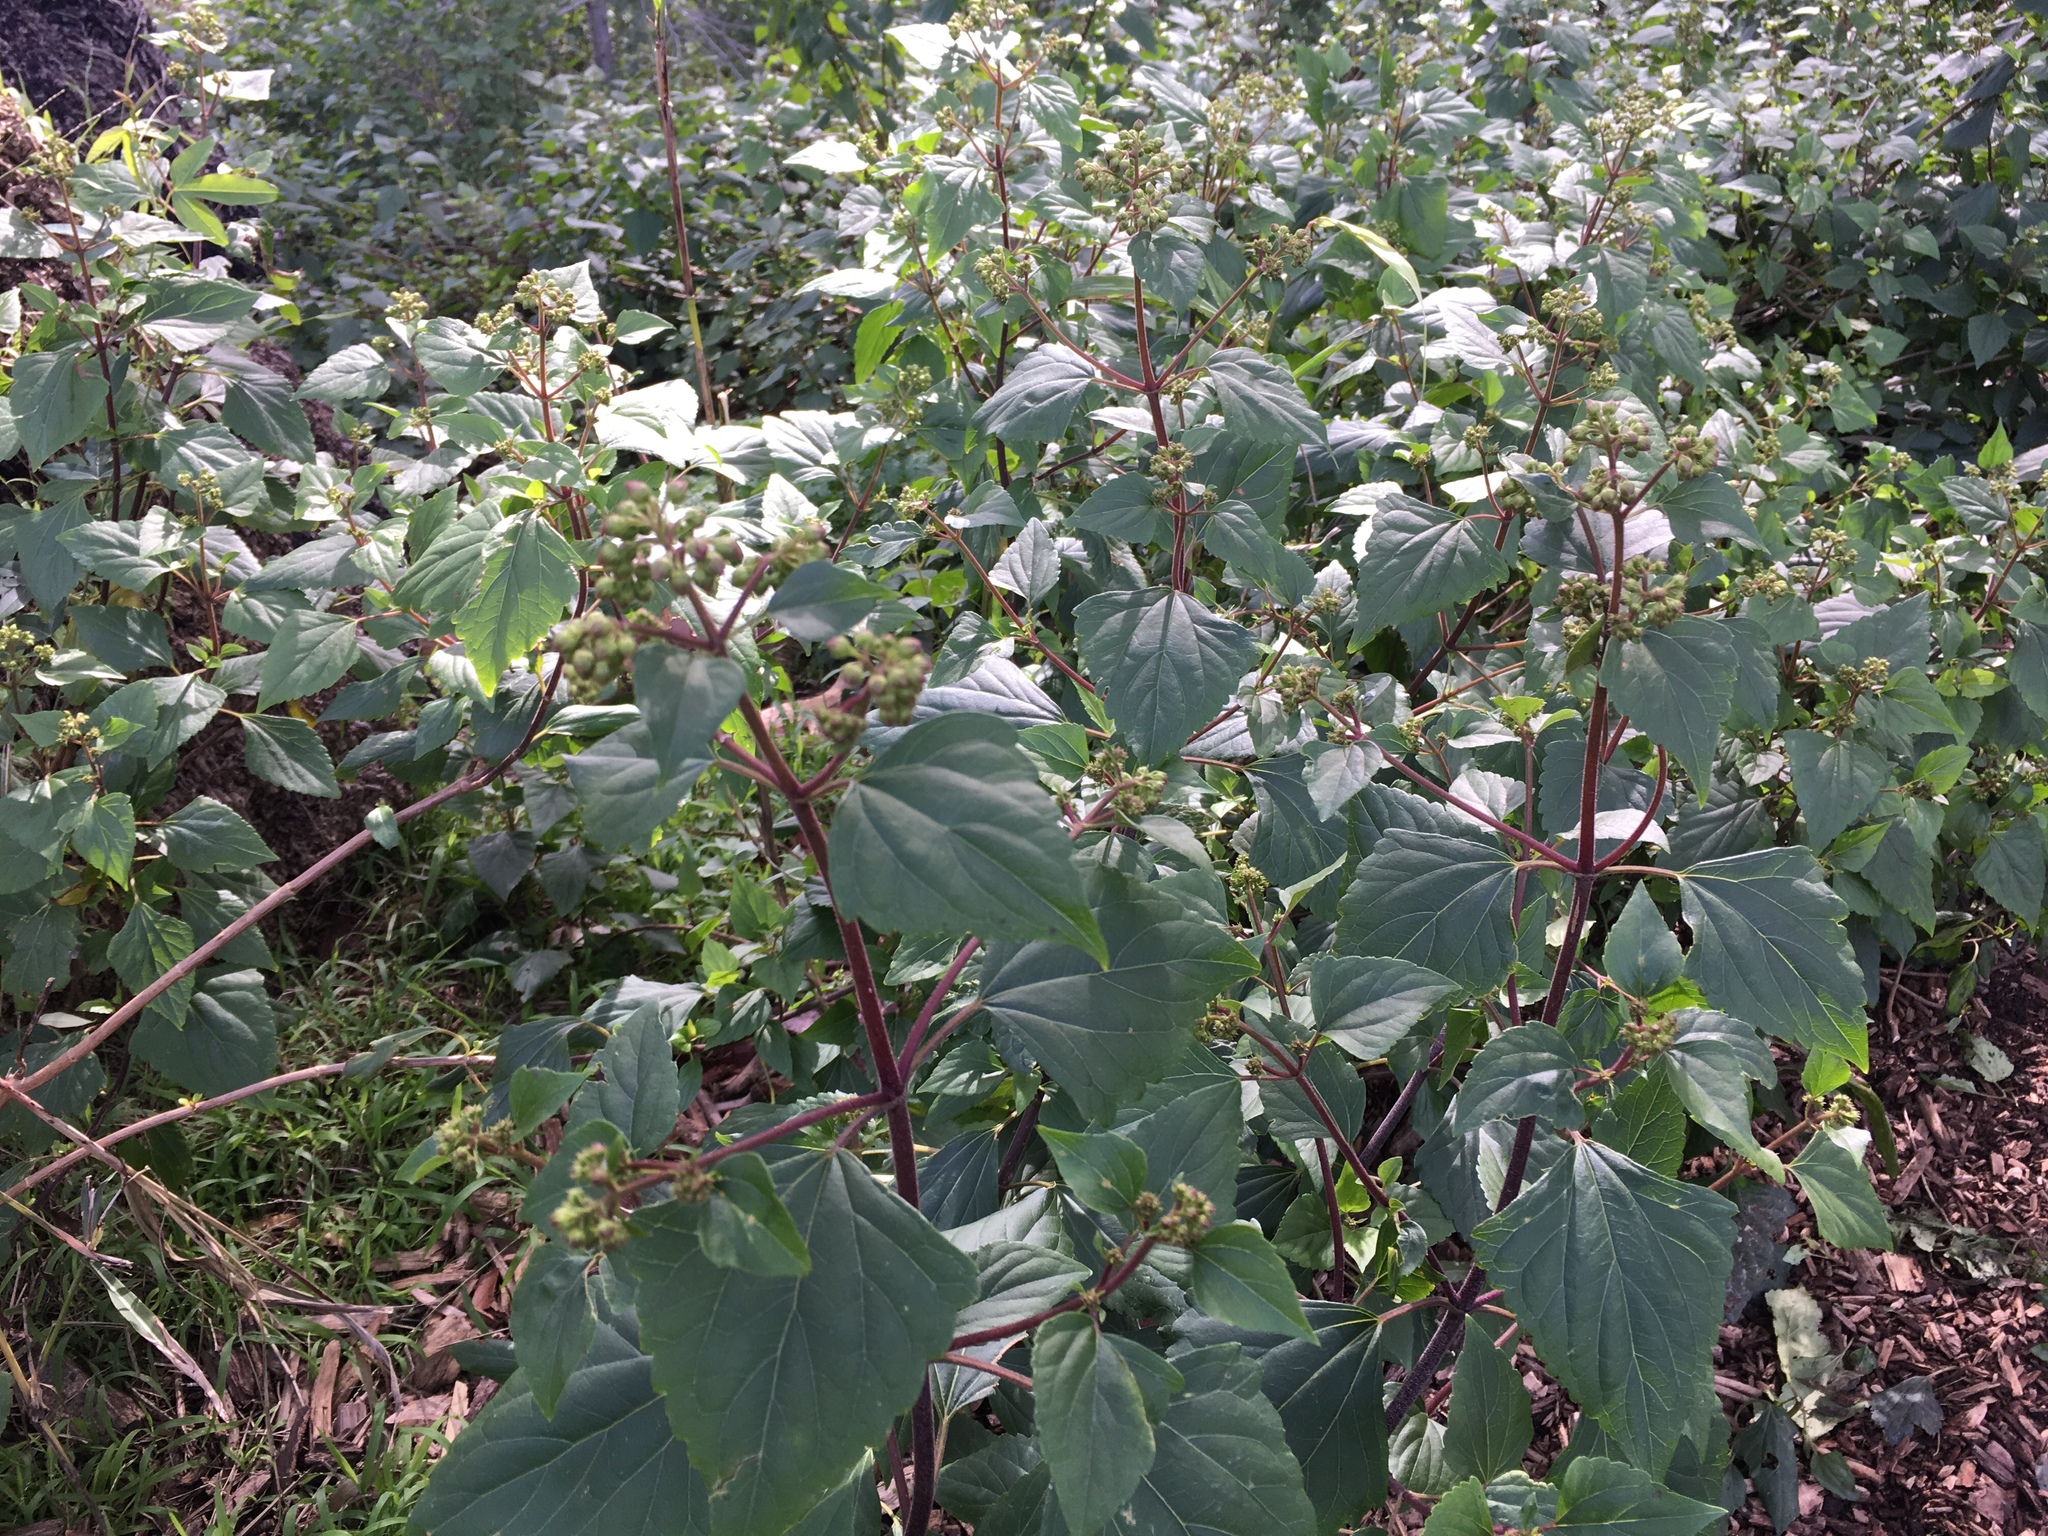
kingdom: Plantae
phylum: Tracheophyta
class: Magnoliopsida
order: Asterales
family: Asteraceae
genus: Ageratina
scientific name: Ageratina adenophora
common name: Sticky snakeroot
